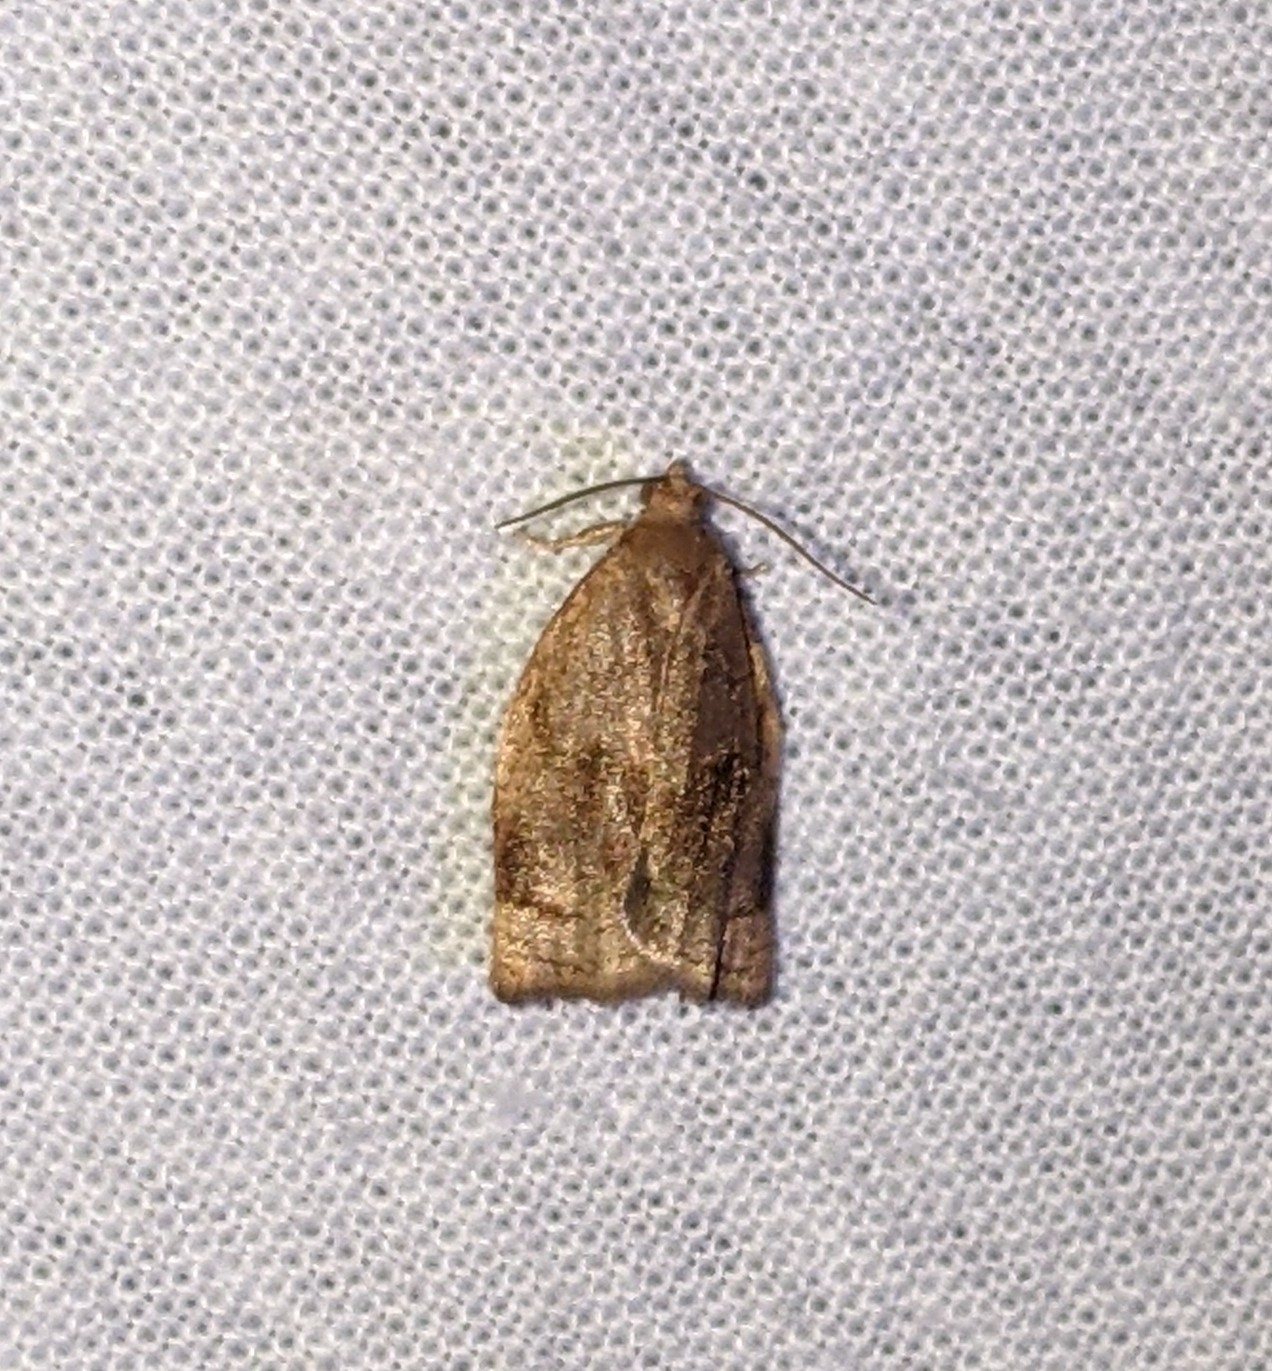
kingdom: Animalia
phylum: Arthropoda
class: Insecta
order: Lepidoptera
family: Tortricidae
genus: Archips
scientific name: Archips rosana
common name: Rose tortrix
